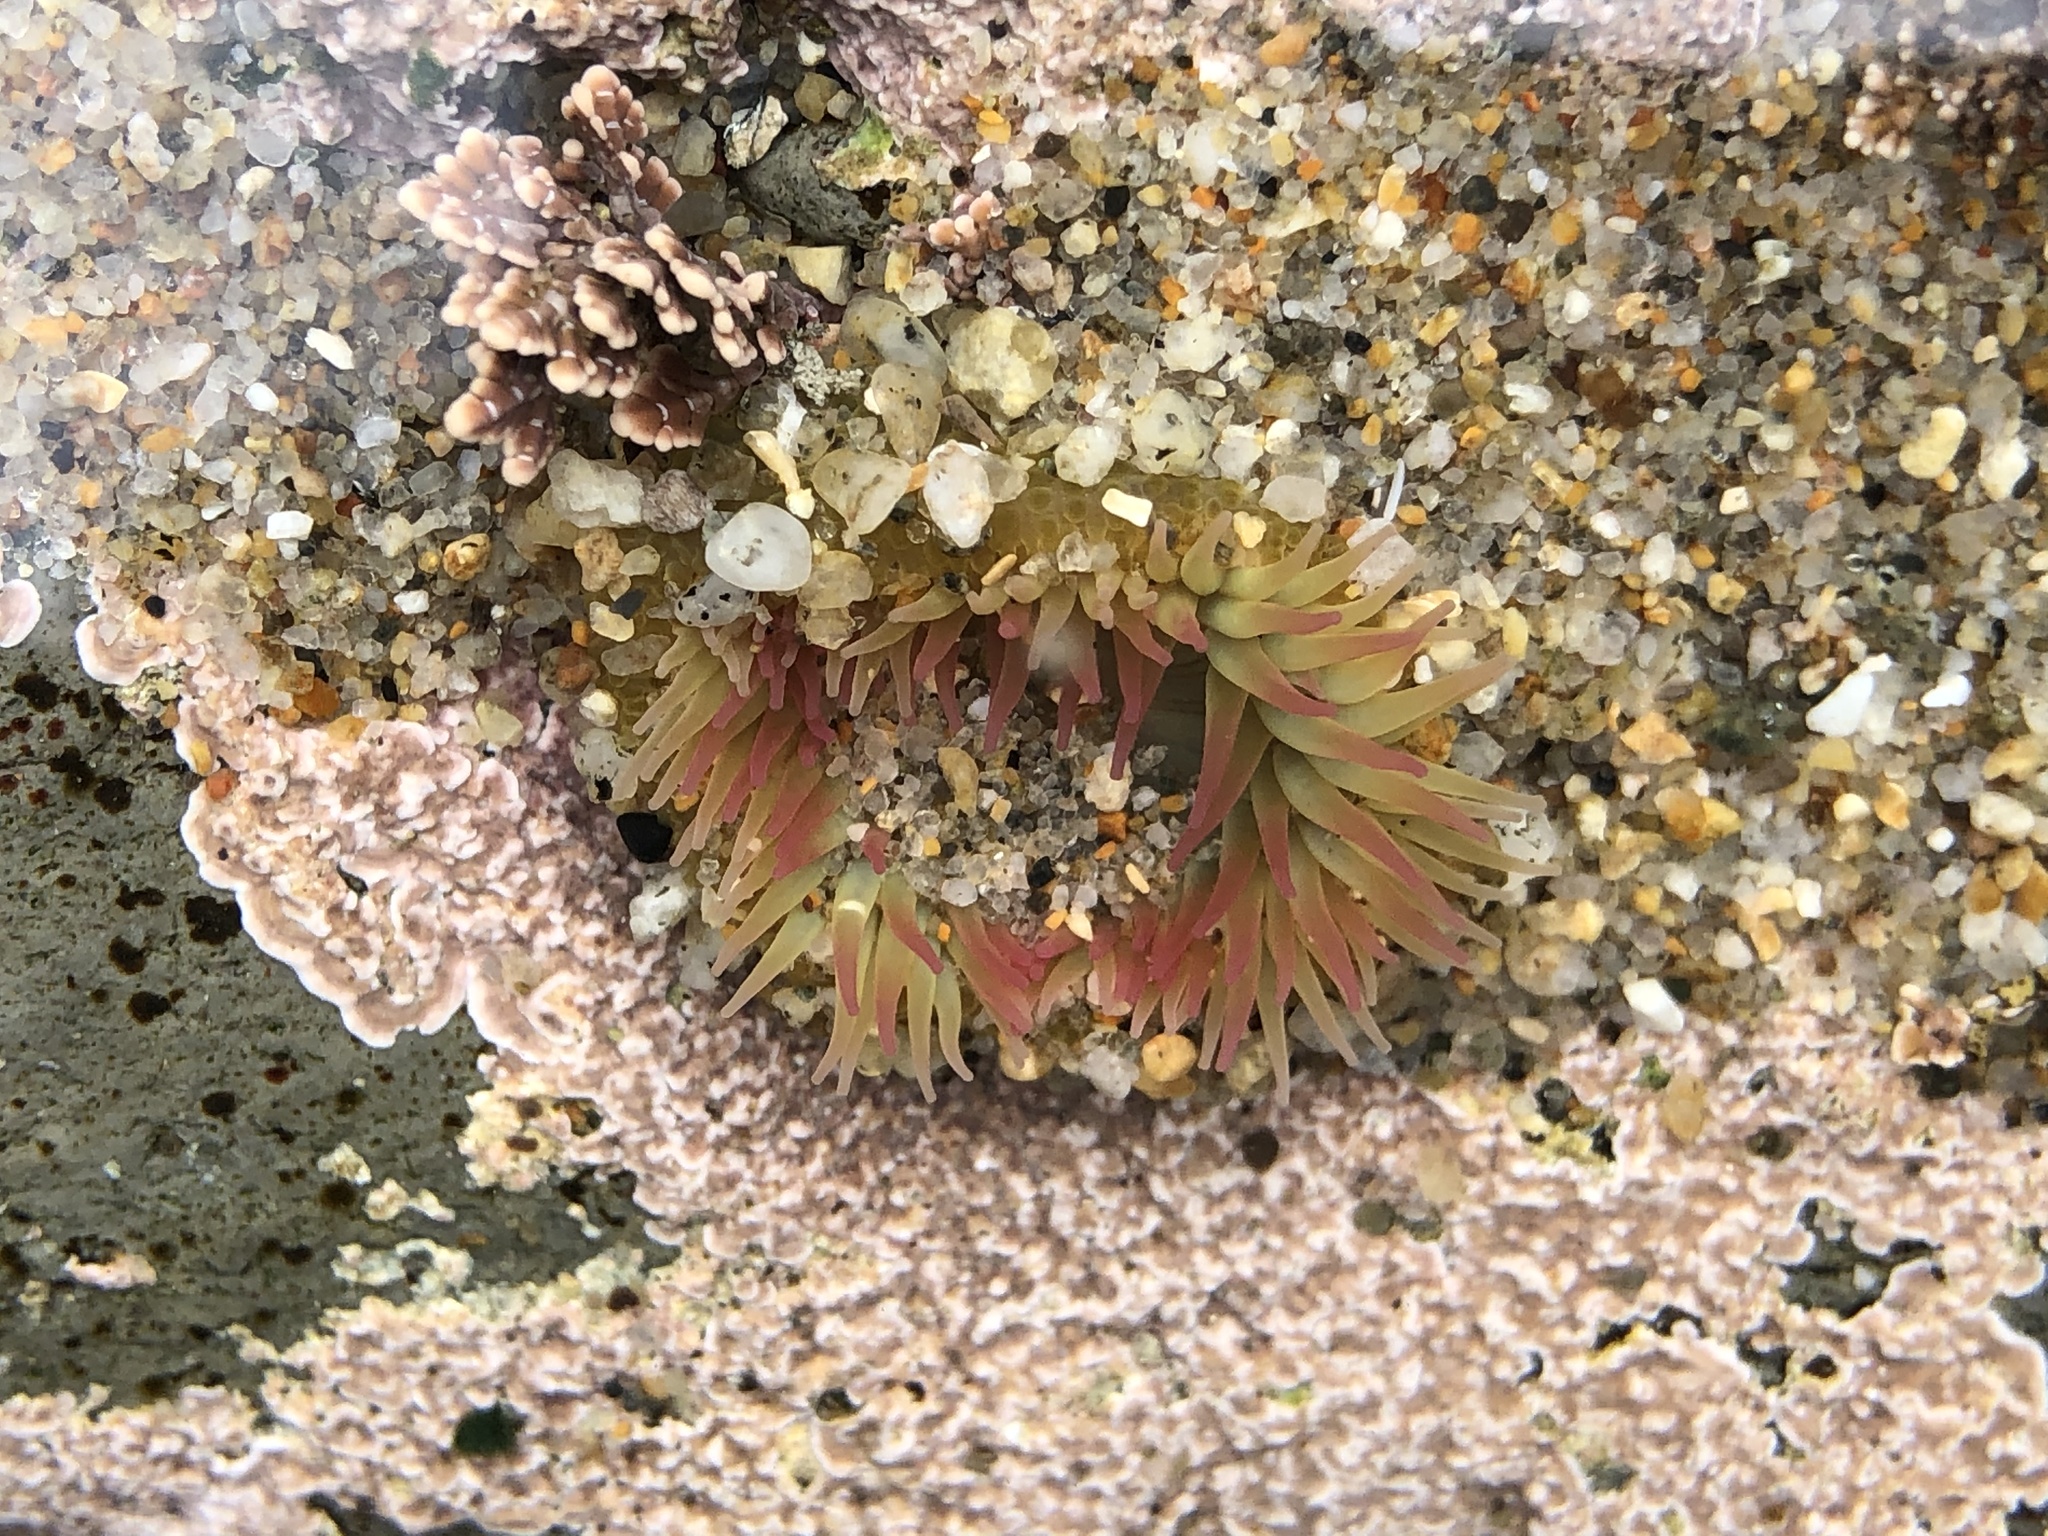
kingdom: Animalia
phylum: Cnidaria
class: Anthozoa
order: Actiniaria
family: Actiniidae
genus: Anthopleura
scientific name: Anthopleura elegantissima
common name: Clonal anemone
